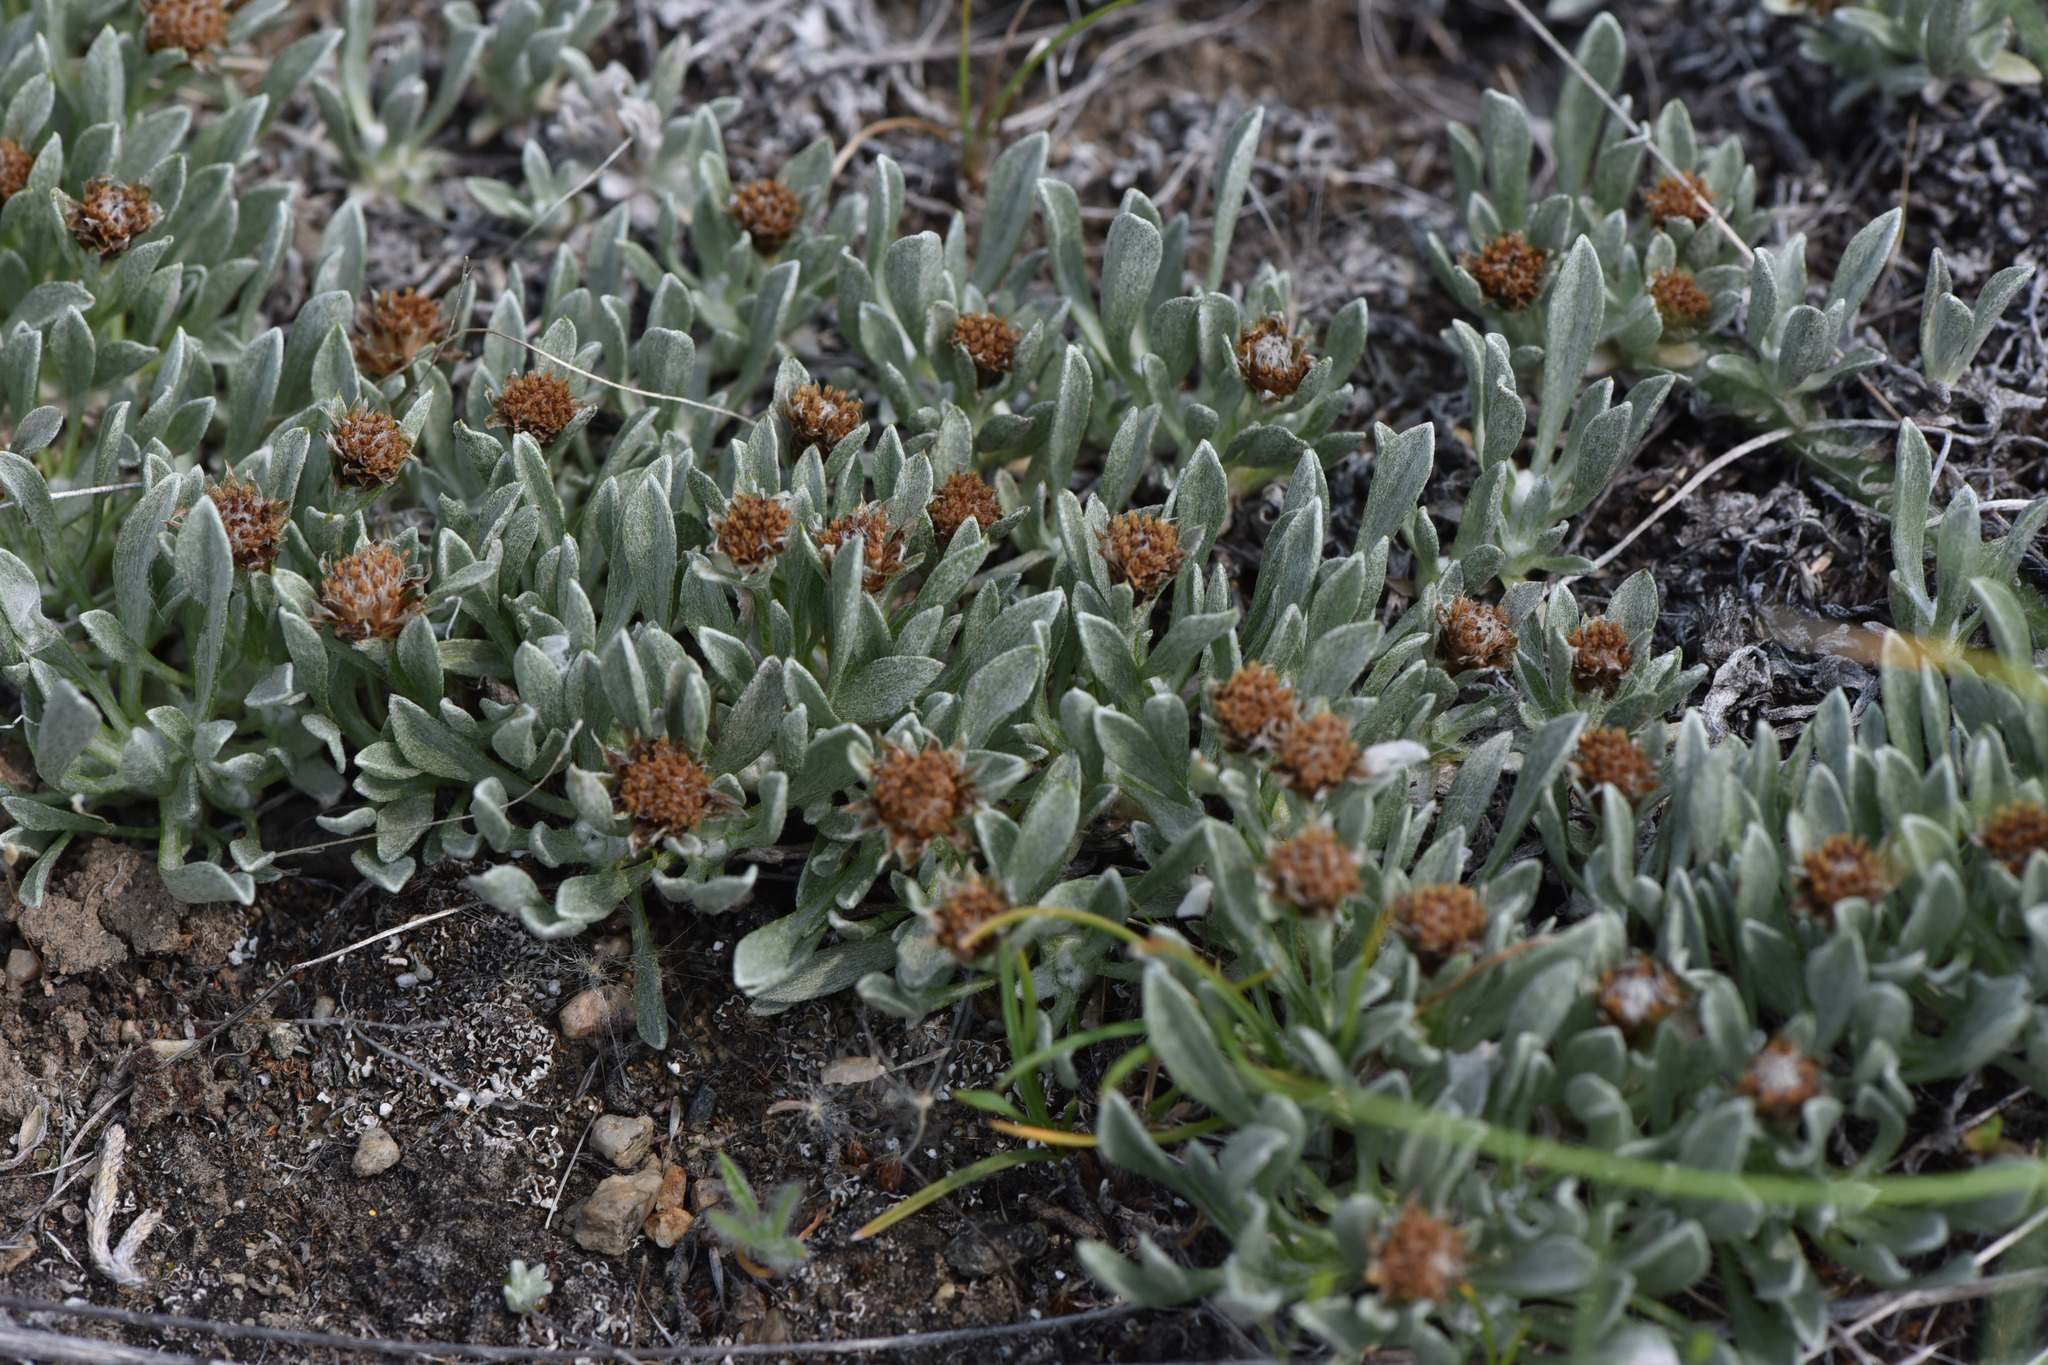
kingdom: Plantae
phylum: Tracheophyta
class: Magnoliopsida
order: Asterales
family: Asteraceae
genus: Antennaria
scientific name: Antennaria dimorpha
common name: Cushion pussytoes
